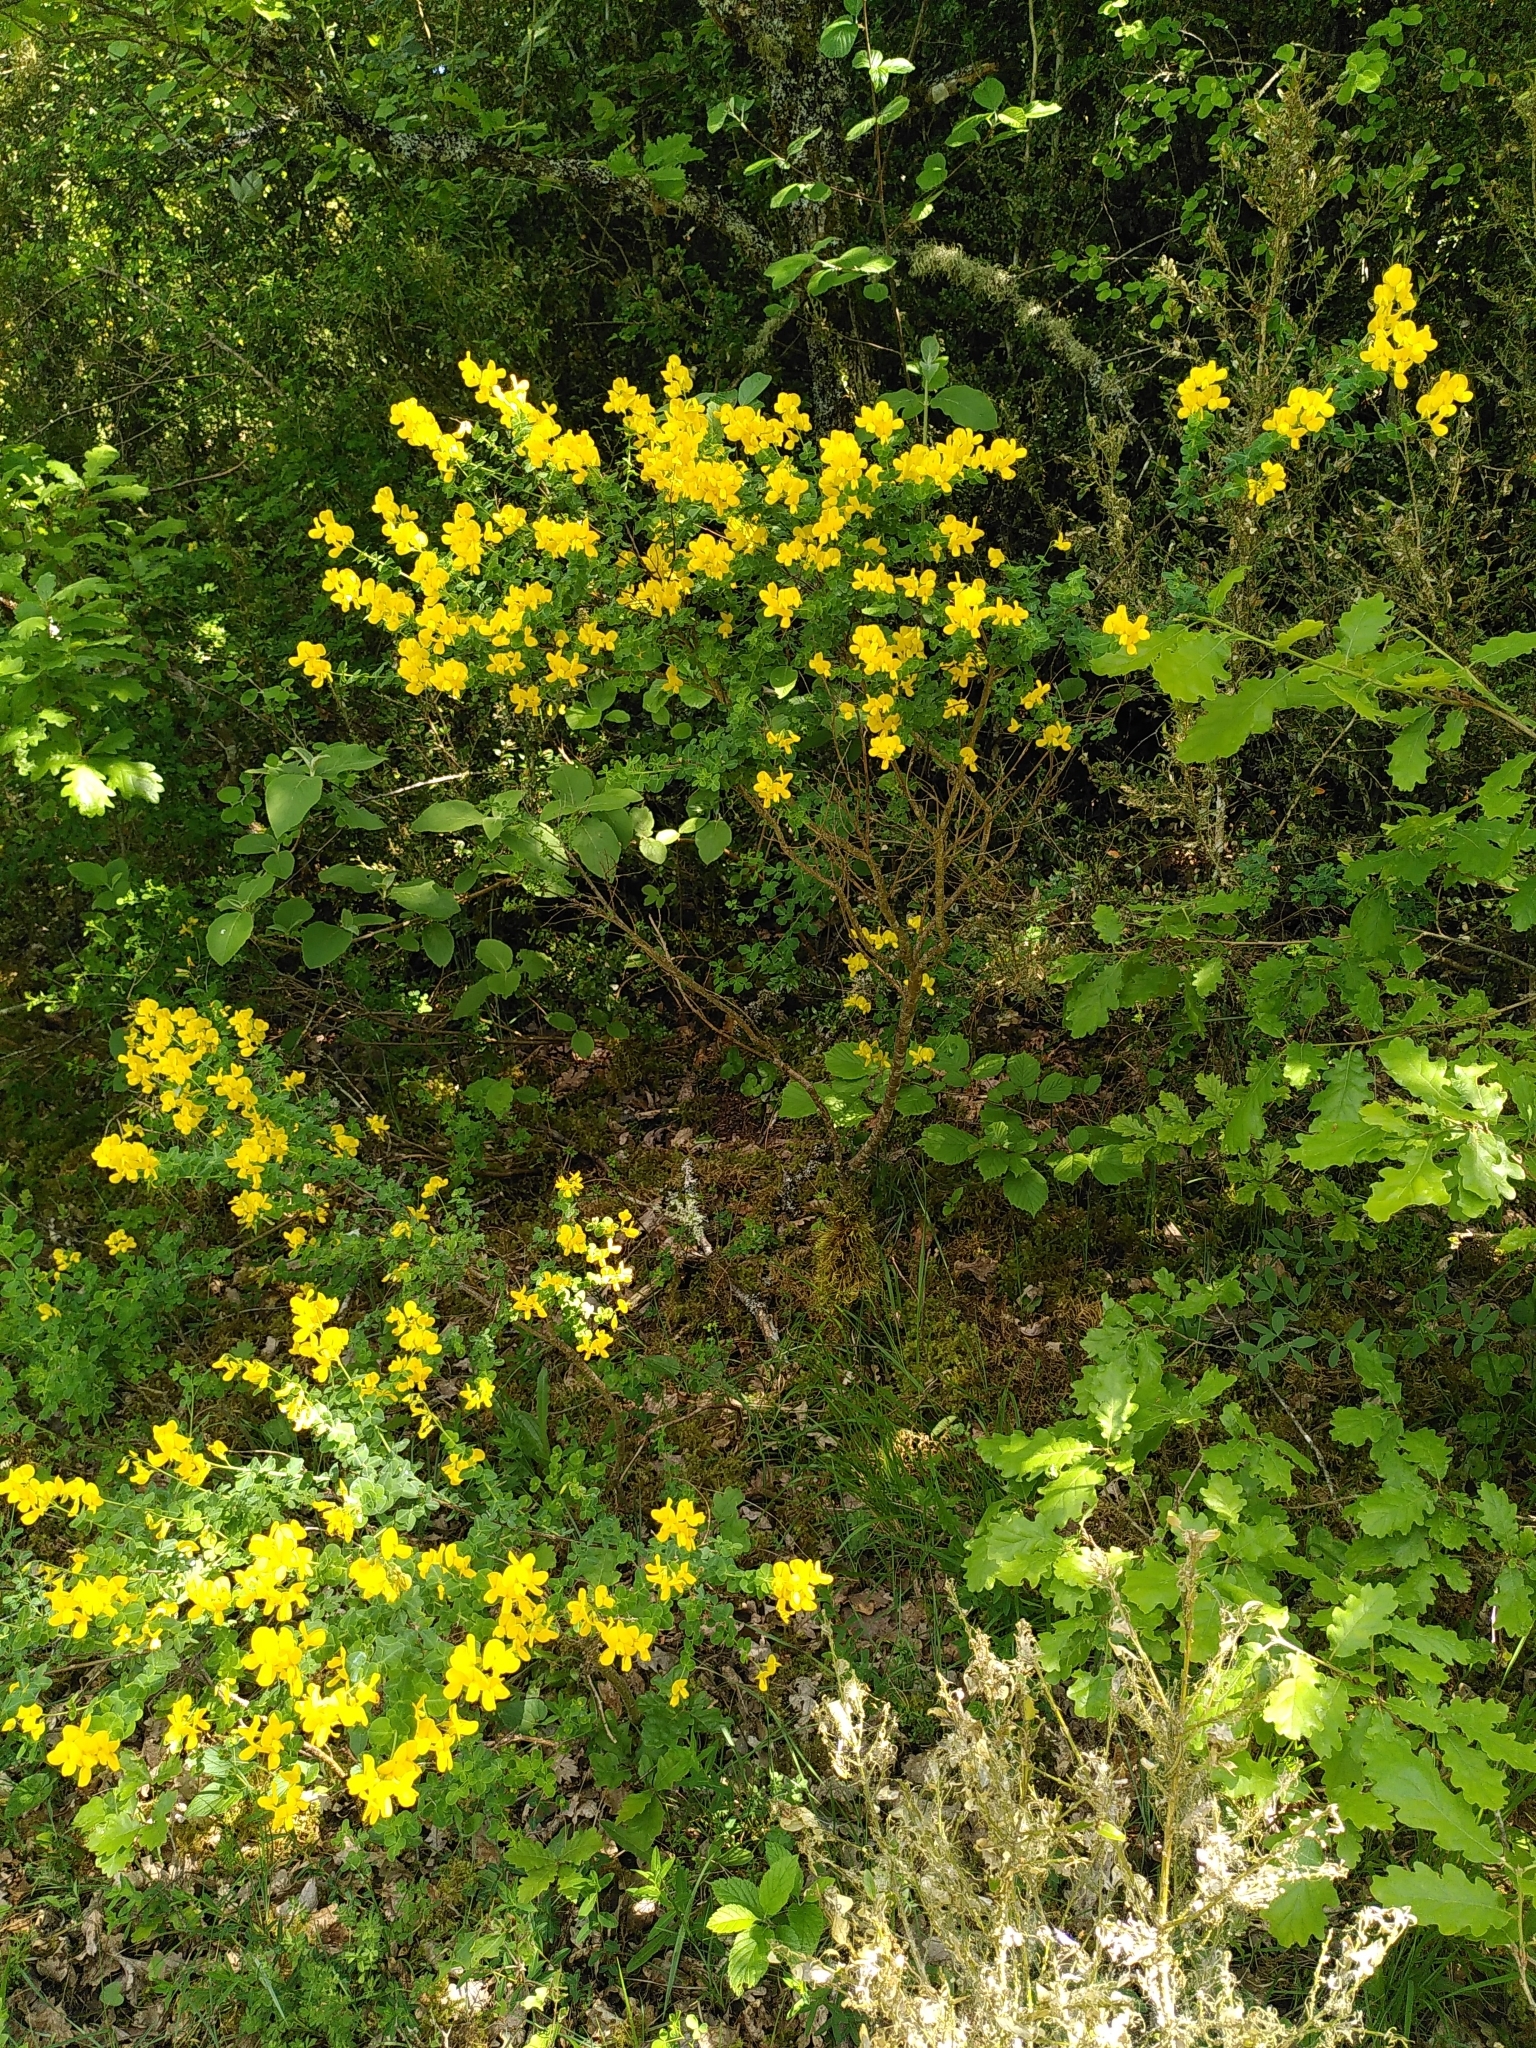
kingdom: Plantae
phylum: Tracheophyta
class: Magnoliopsida
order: Fabales
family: Fabaceae
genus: Cytisophyllum
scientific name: Cytisophyllum sessilifolium
